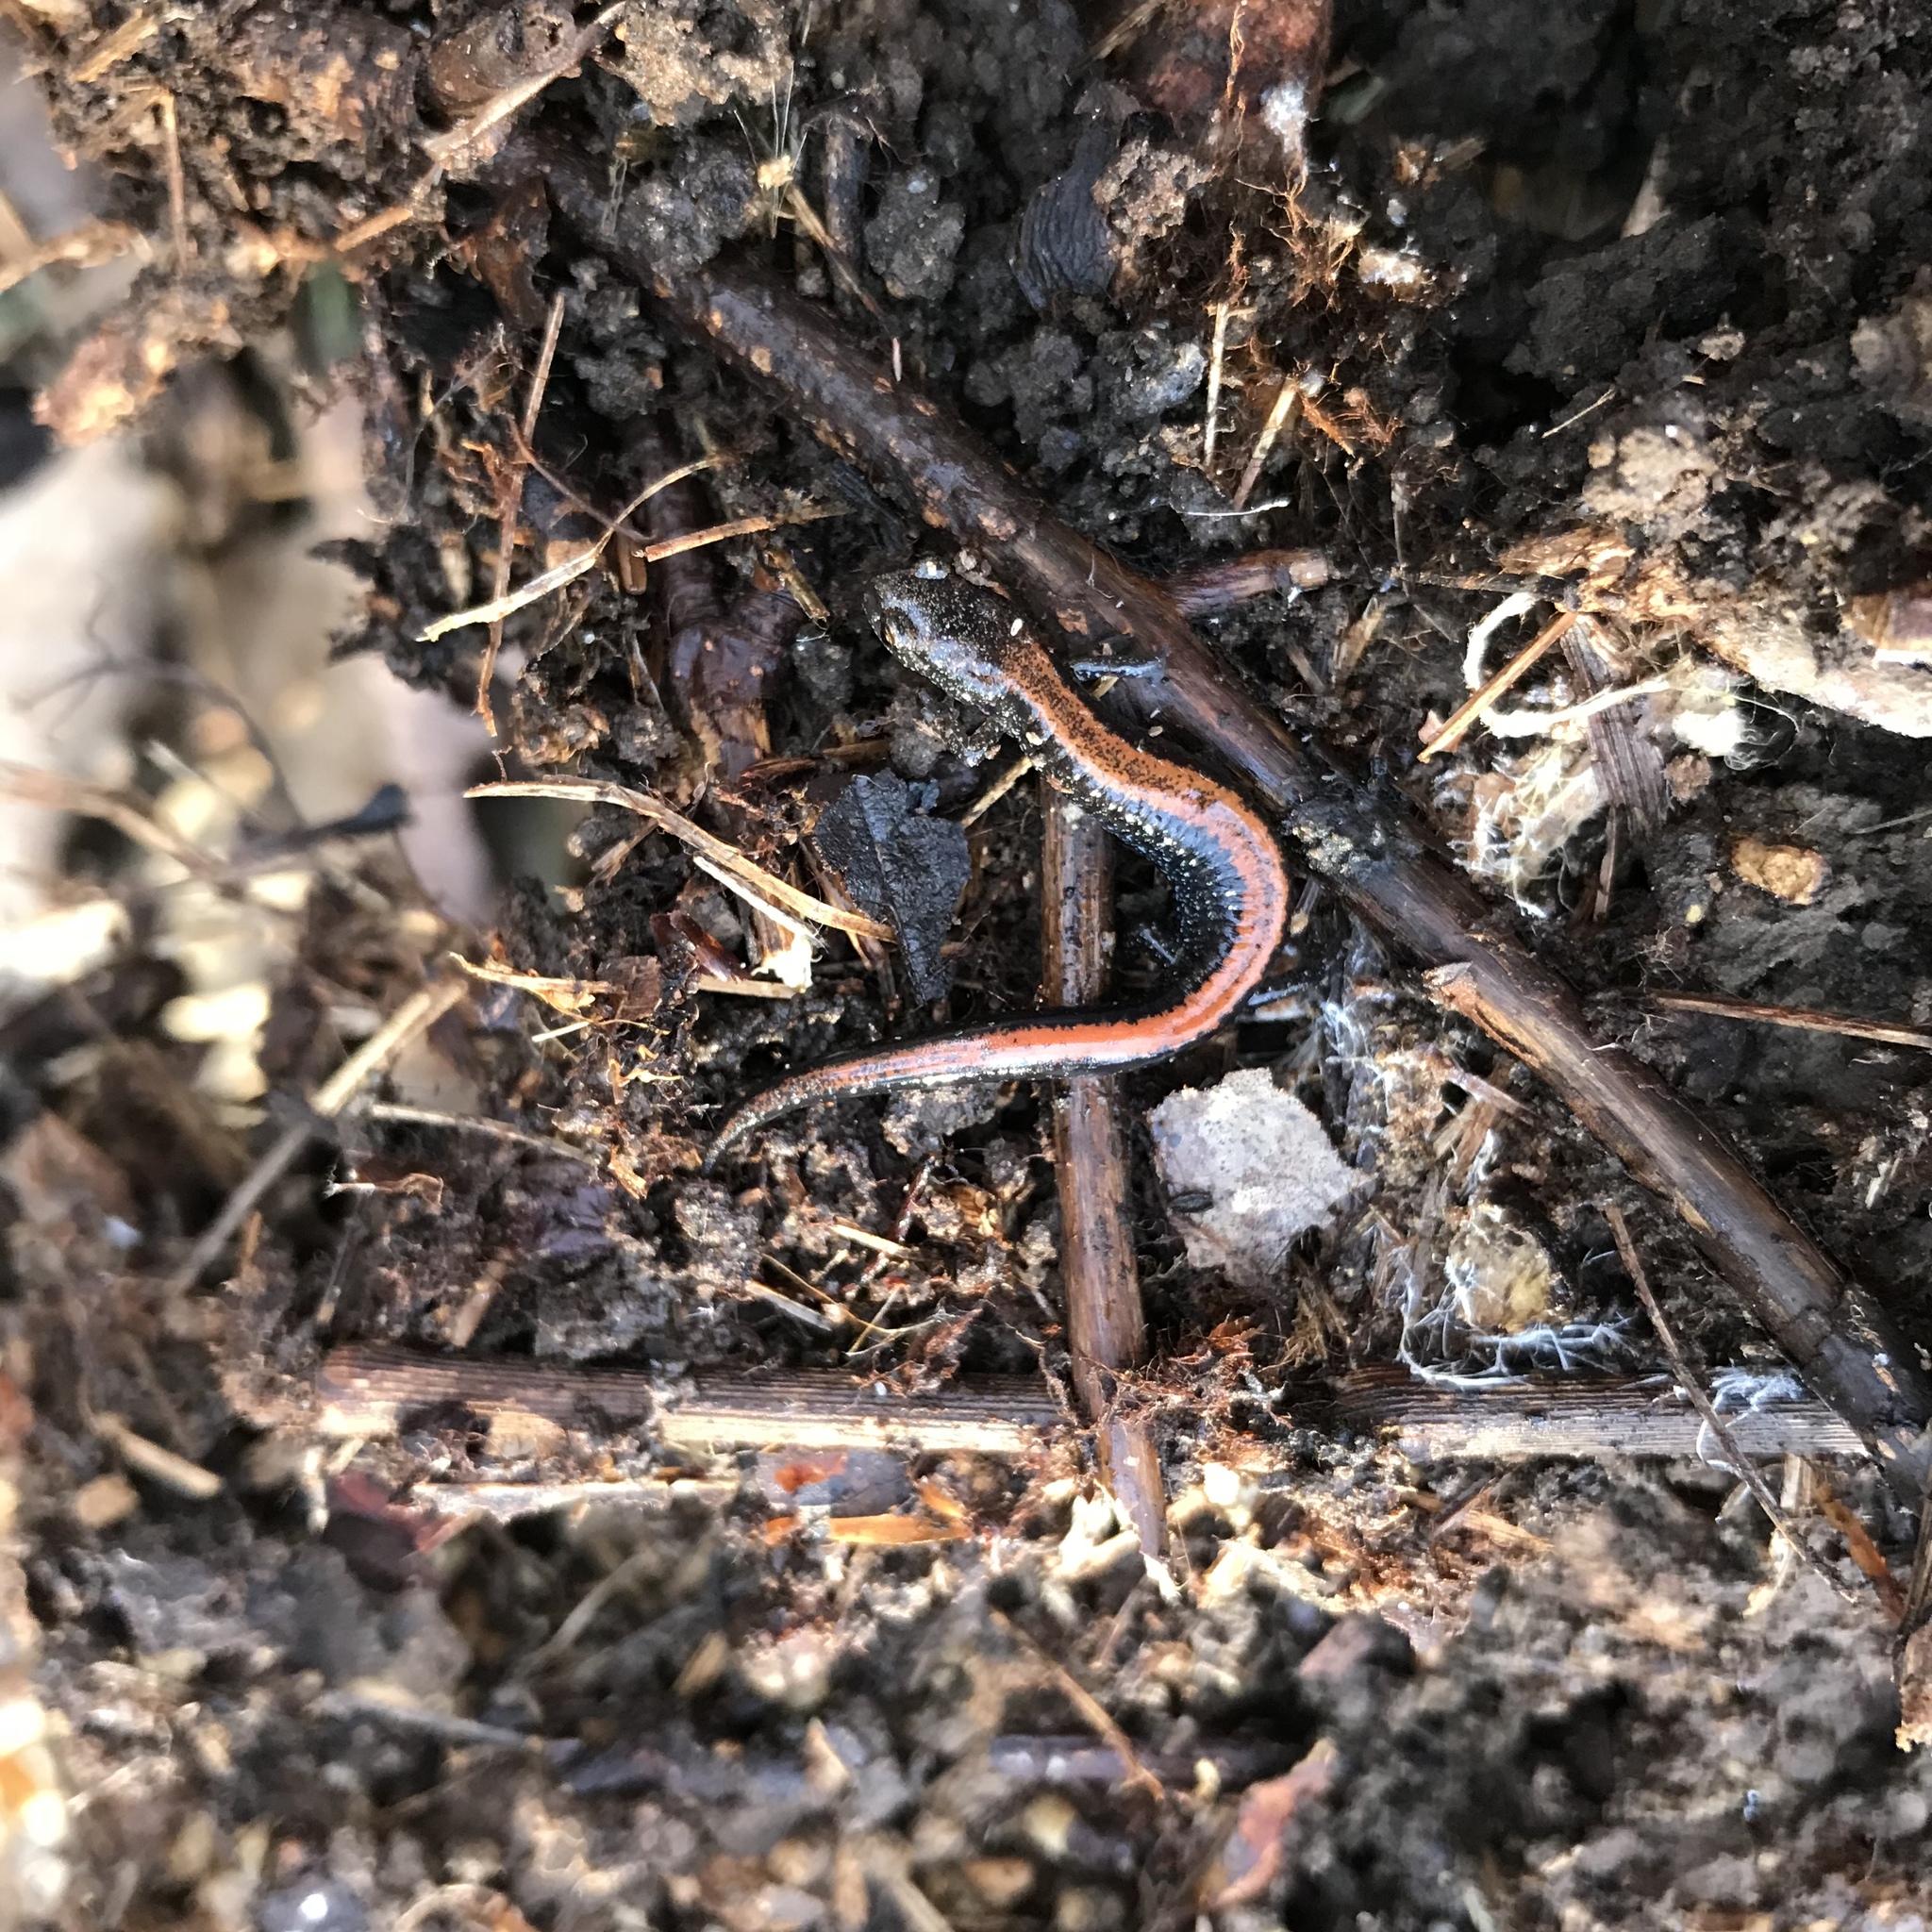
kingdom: Animalia
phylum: Chordata
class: Amphibia
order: Caudata
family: Plethodontidae
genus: Plethodon
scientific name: Plethodon cinereus
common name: Redback salamander
